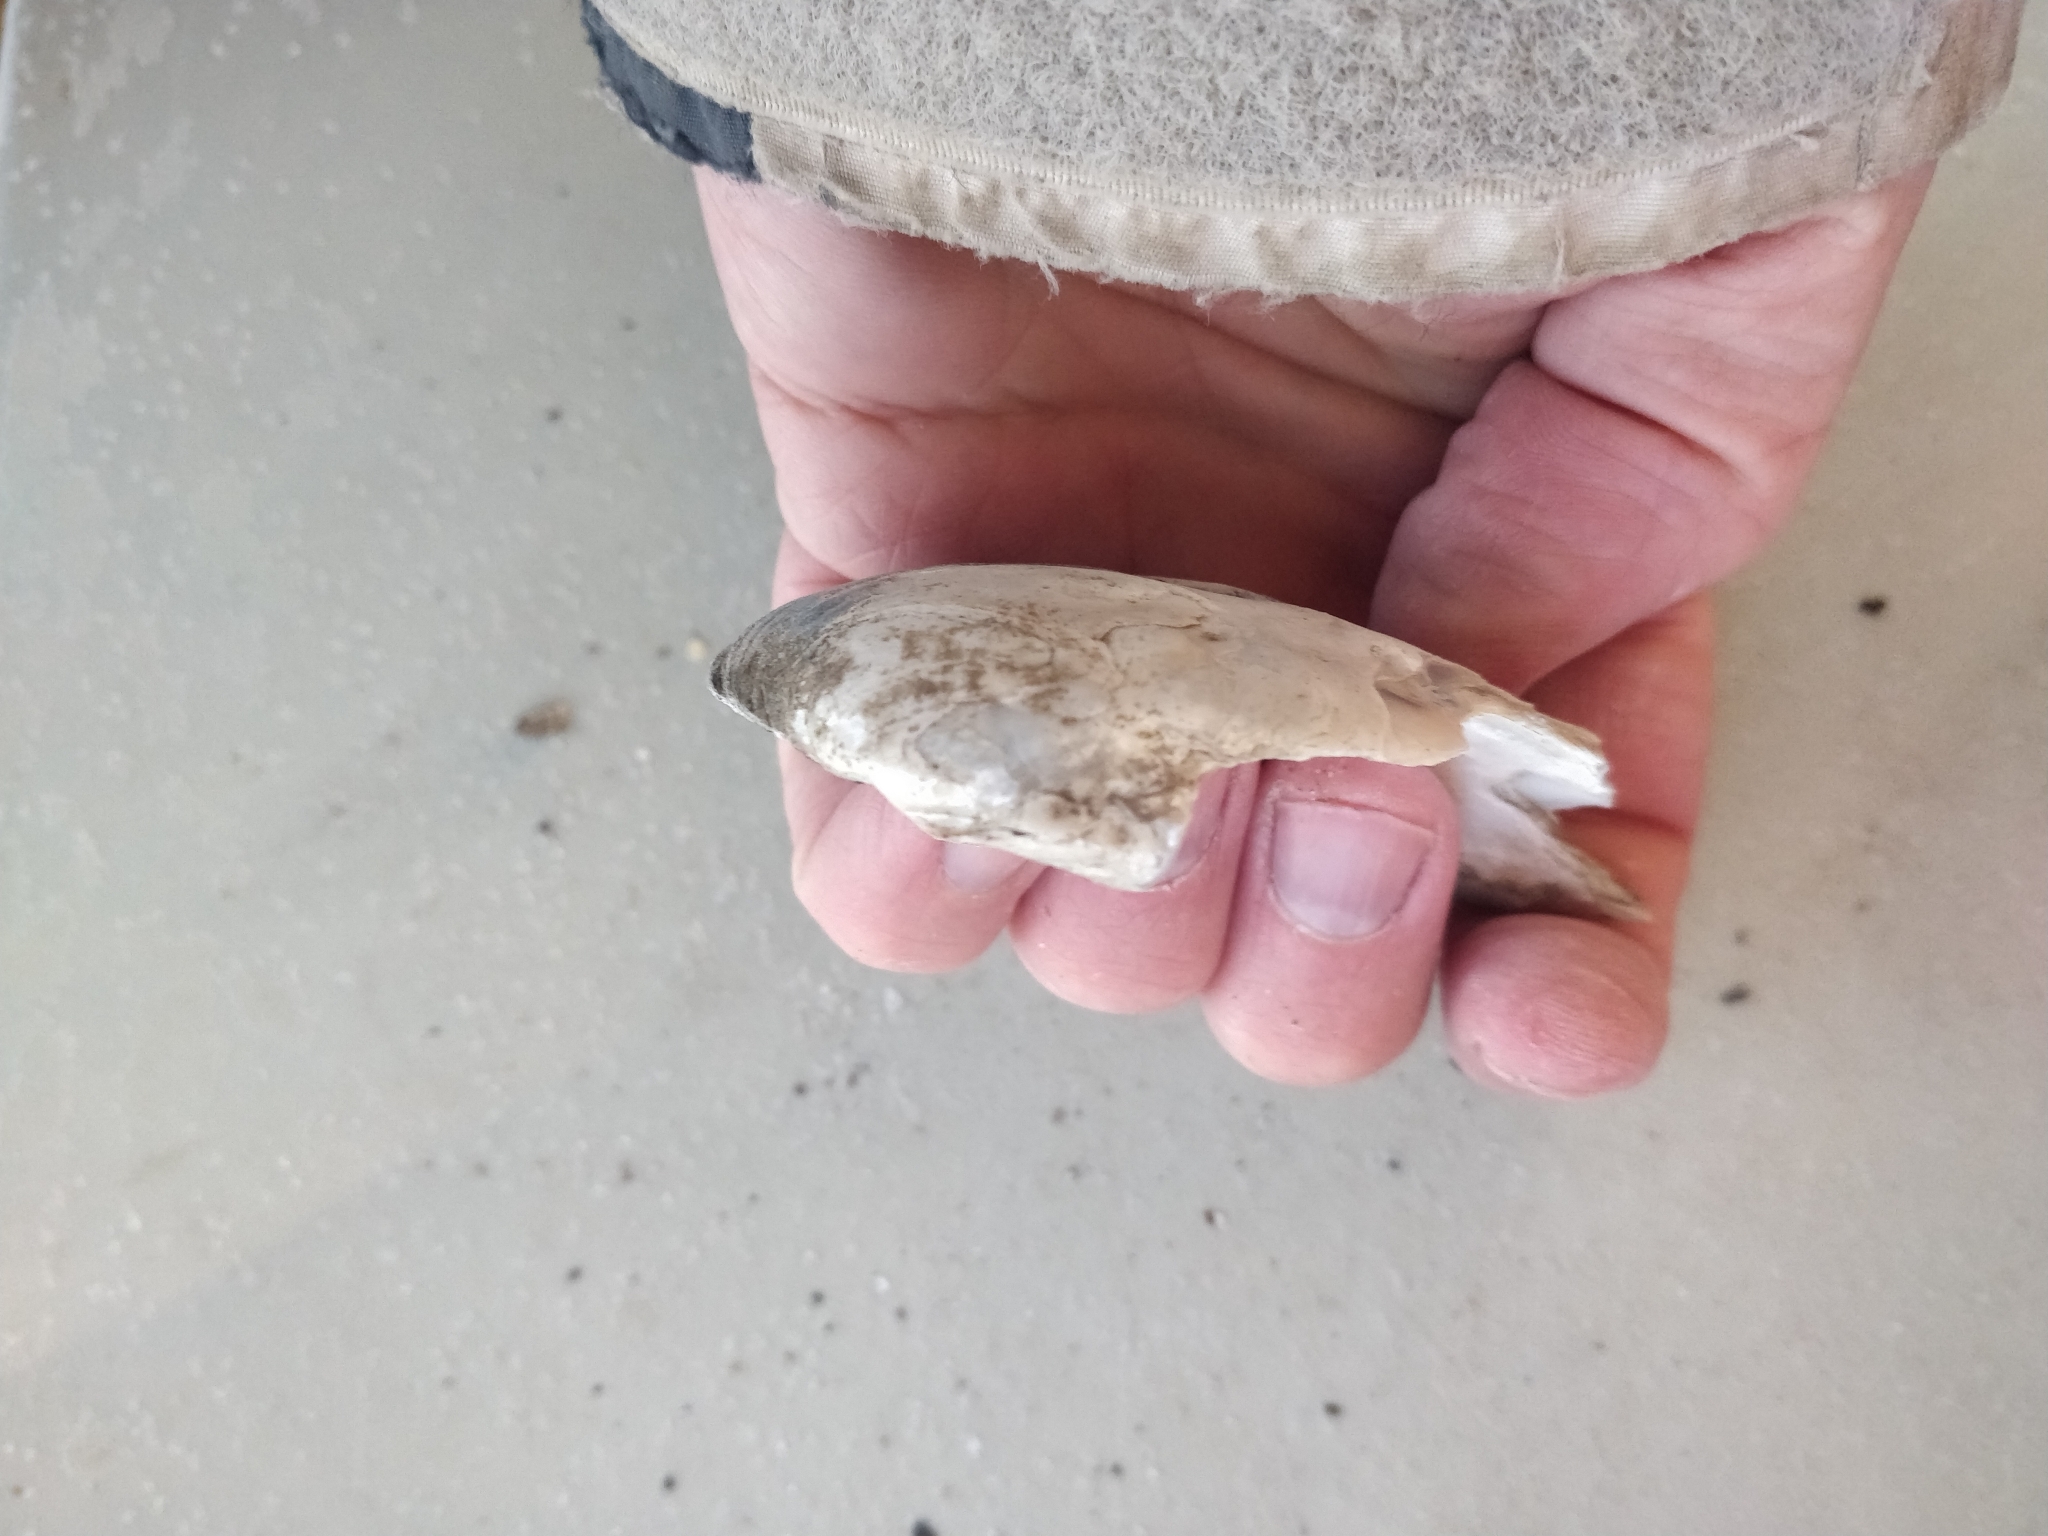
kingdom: Animalia
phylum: Mollusca
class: Bivalvia
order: Unionida
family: Unionidae
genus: Amblema
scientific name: Amblema plicata
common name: Threeridge
